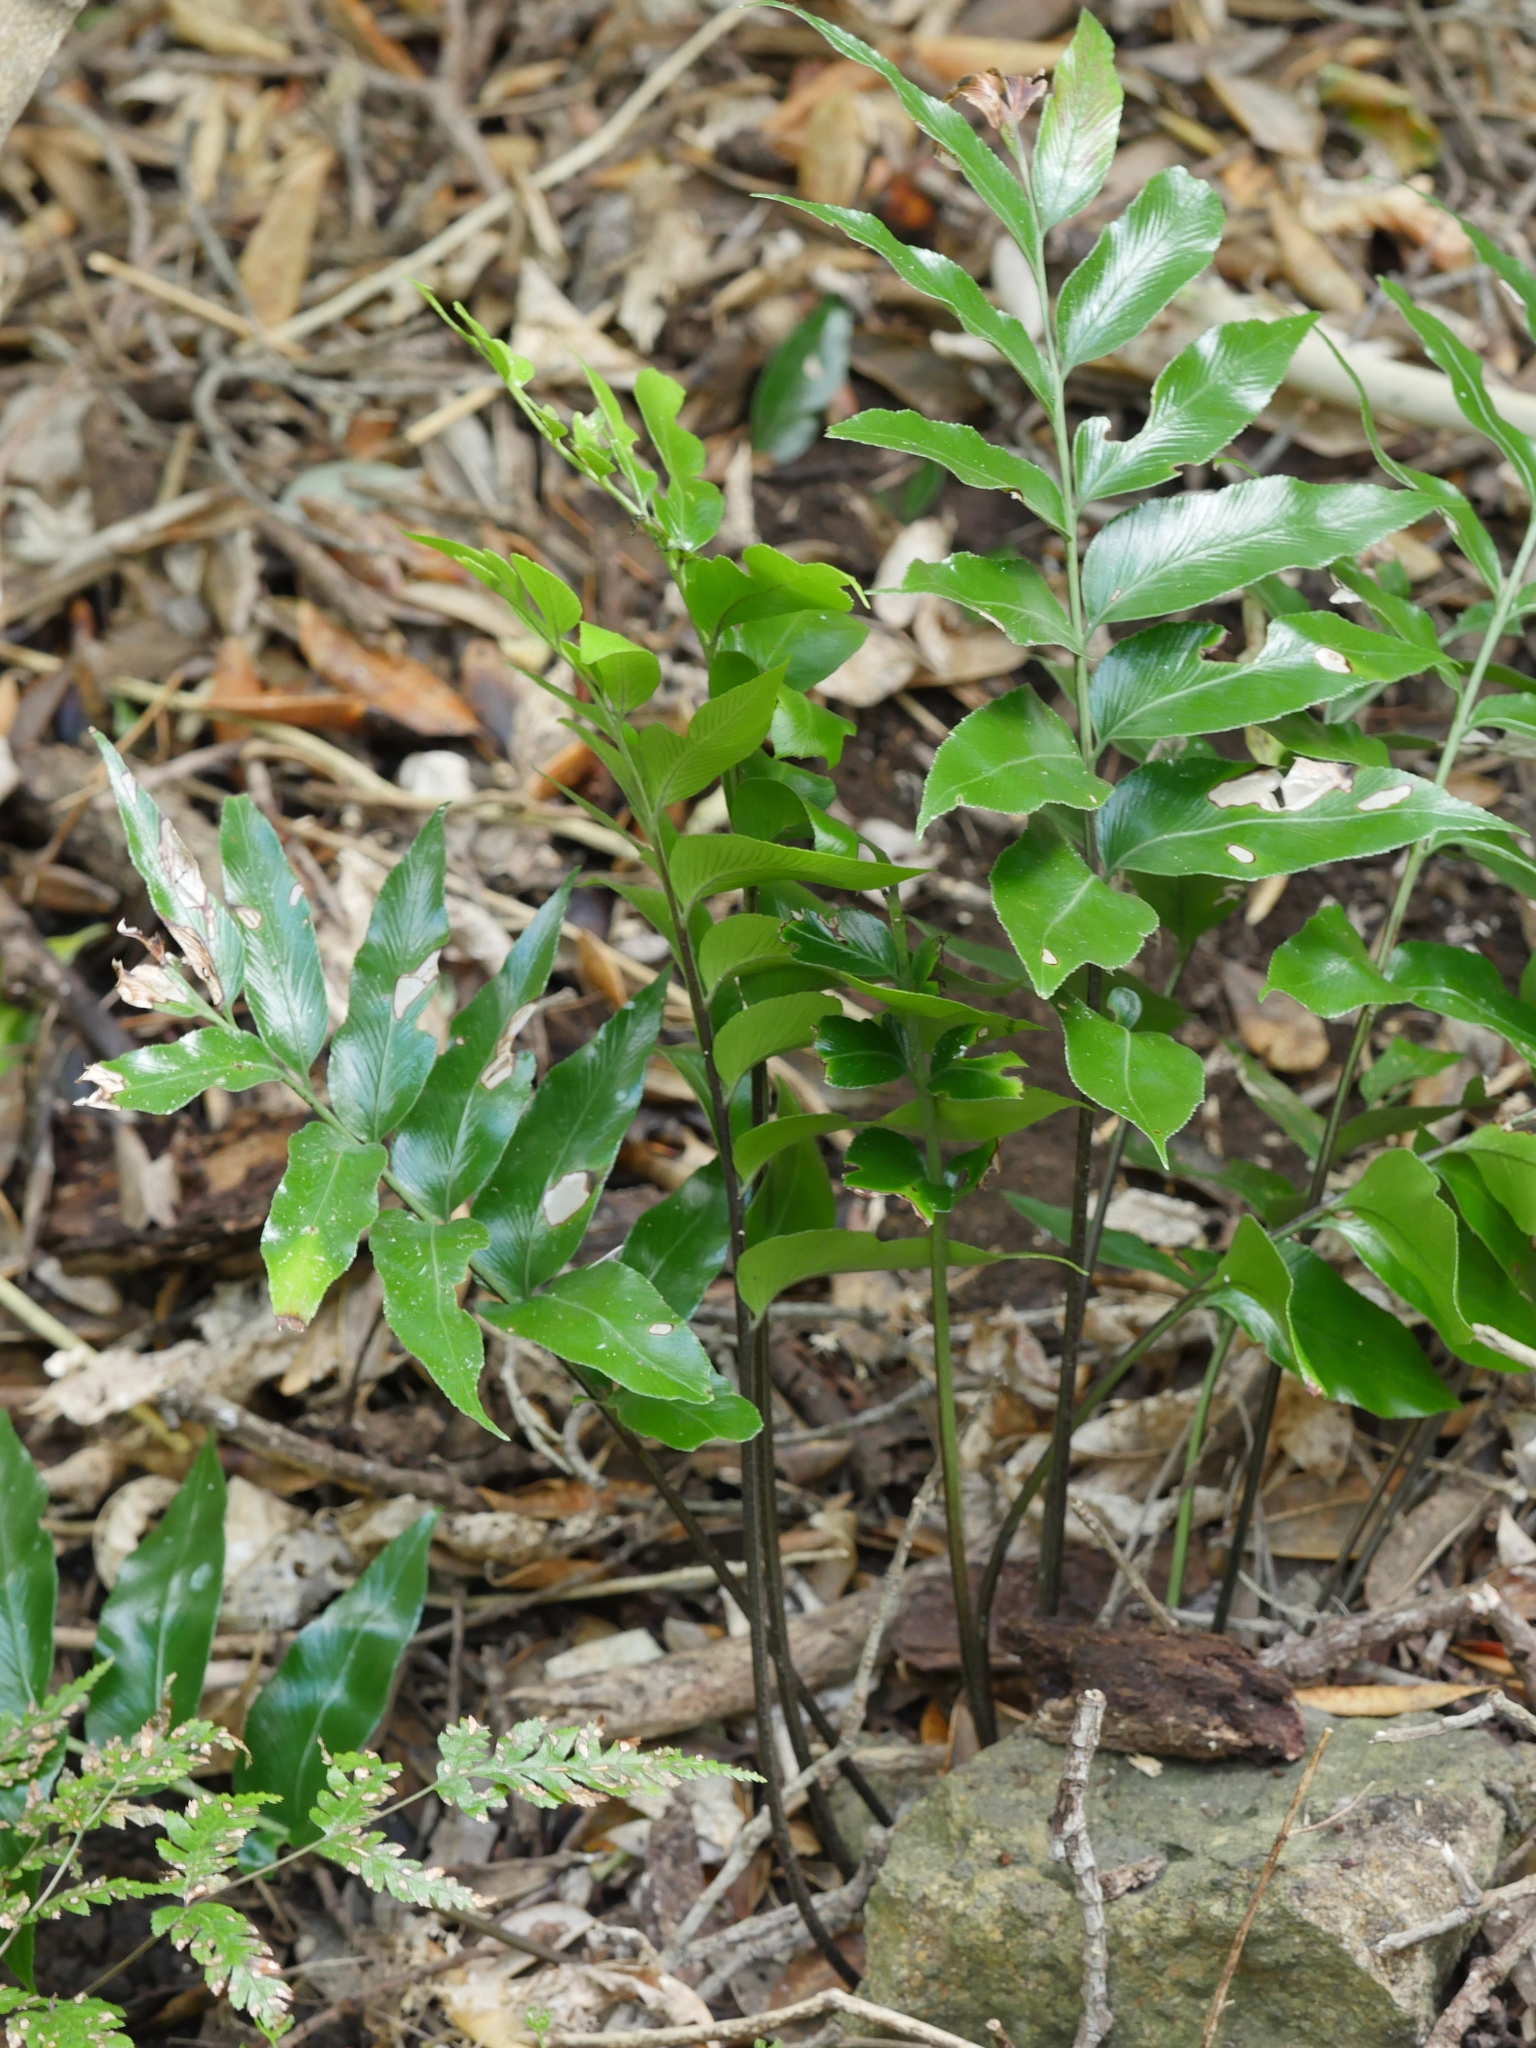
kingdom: Plantae
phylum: Tracheophyta
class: Polypodiopsida
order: Polypodiales
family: Aspleniaceae
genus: Asplenium
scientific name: Asplenium oblongifolium
